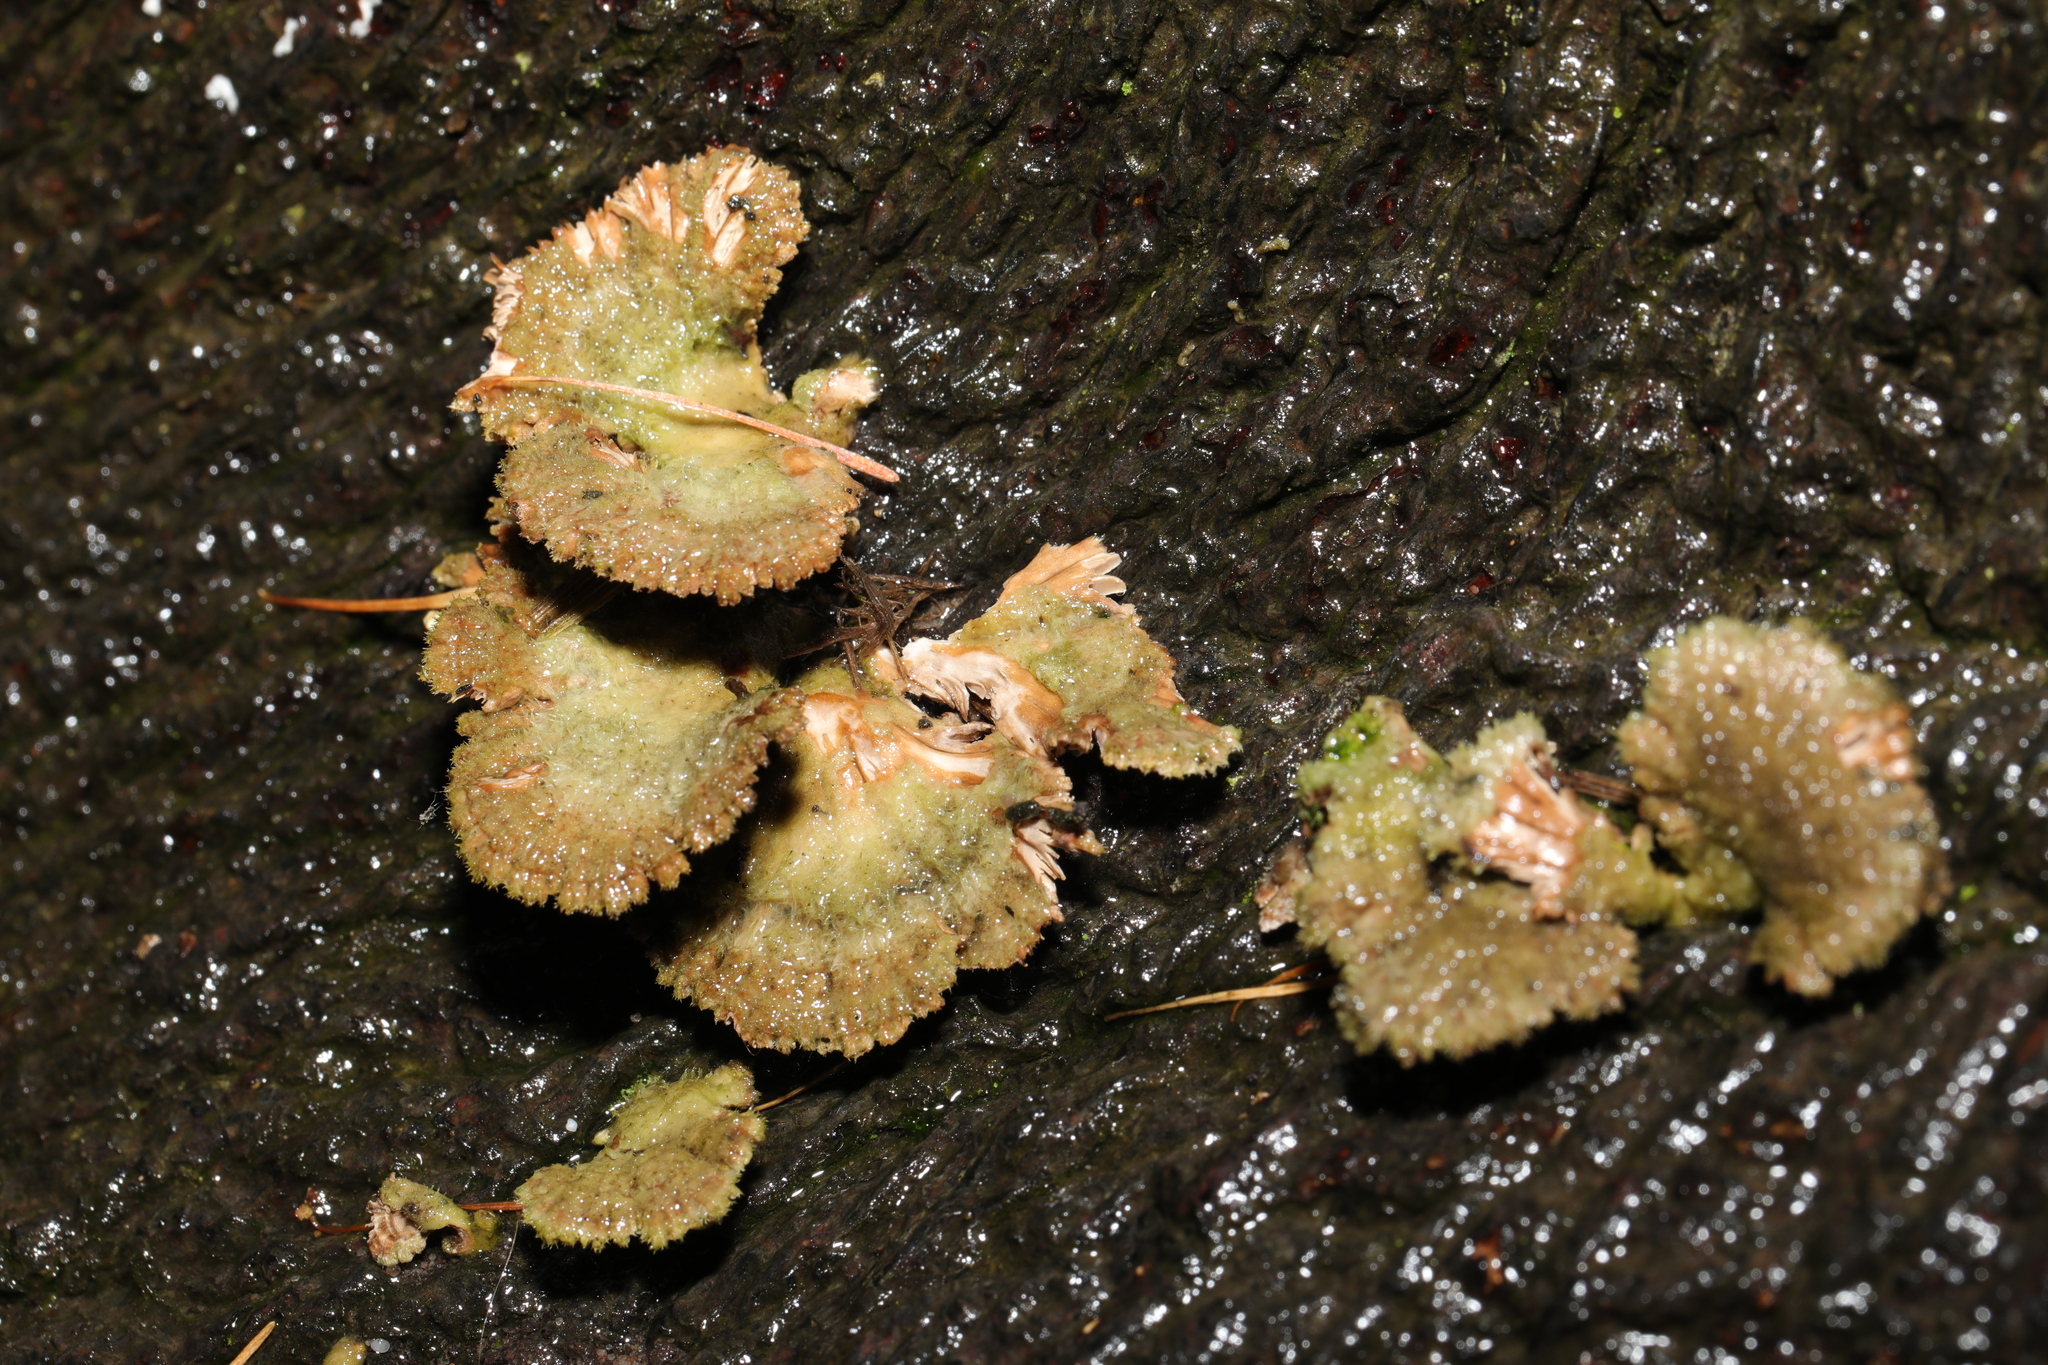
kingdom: Fungi
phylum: Basidiomycota
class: Agaricomycetes
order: Agaricales
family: Schizophyllaceae
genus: Schizophyllum
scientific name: Schizophyllum commune
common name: Common porecrust
